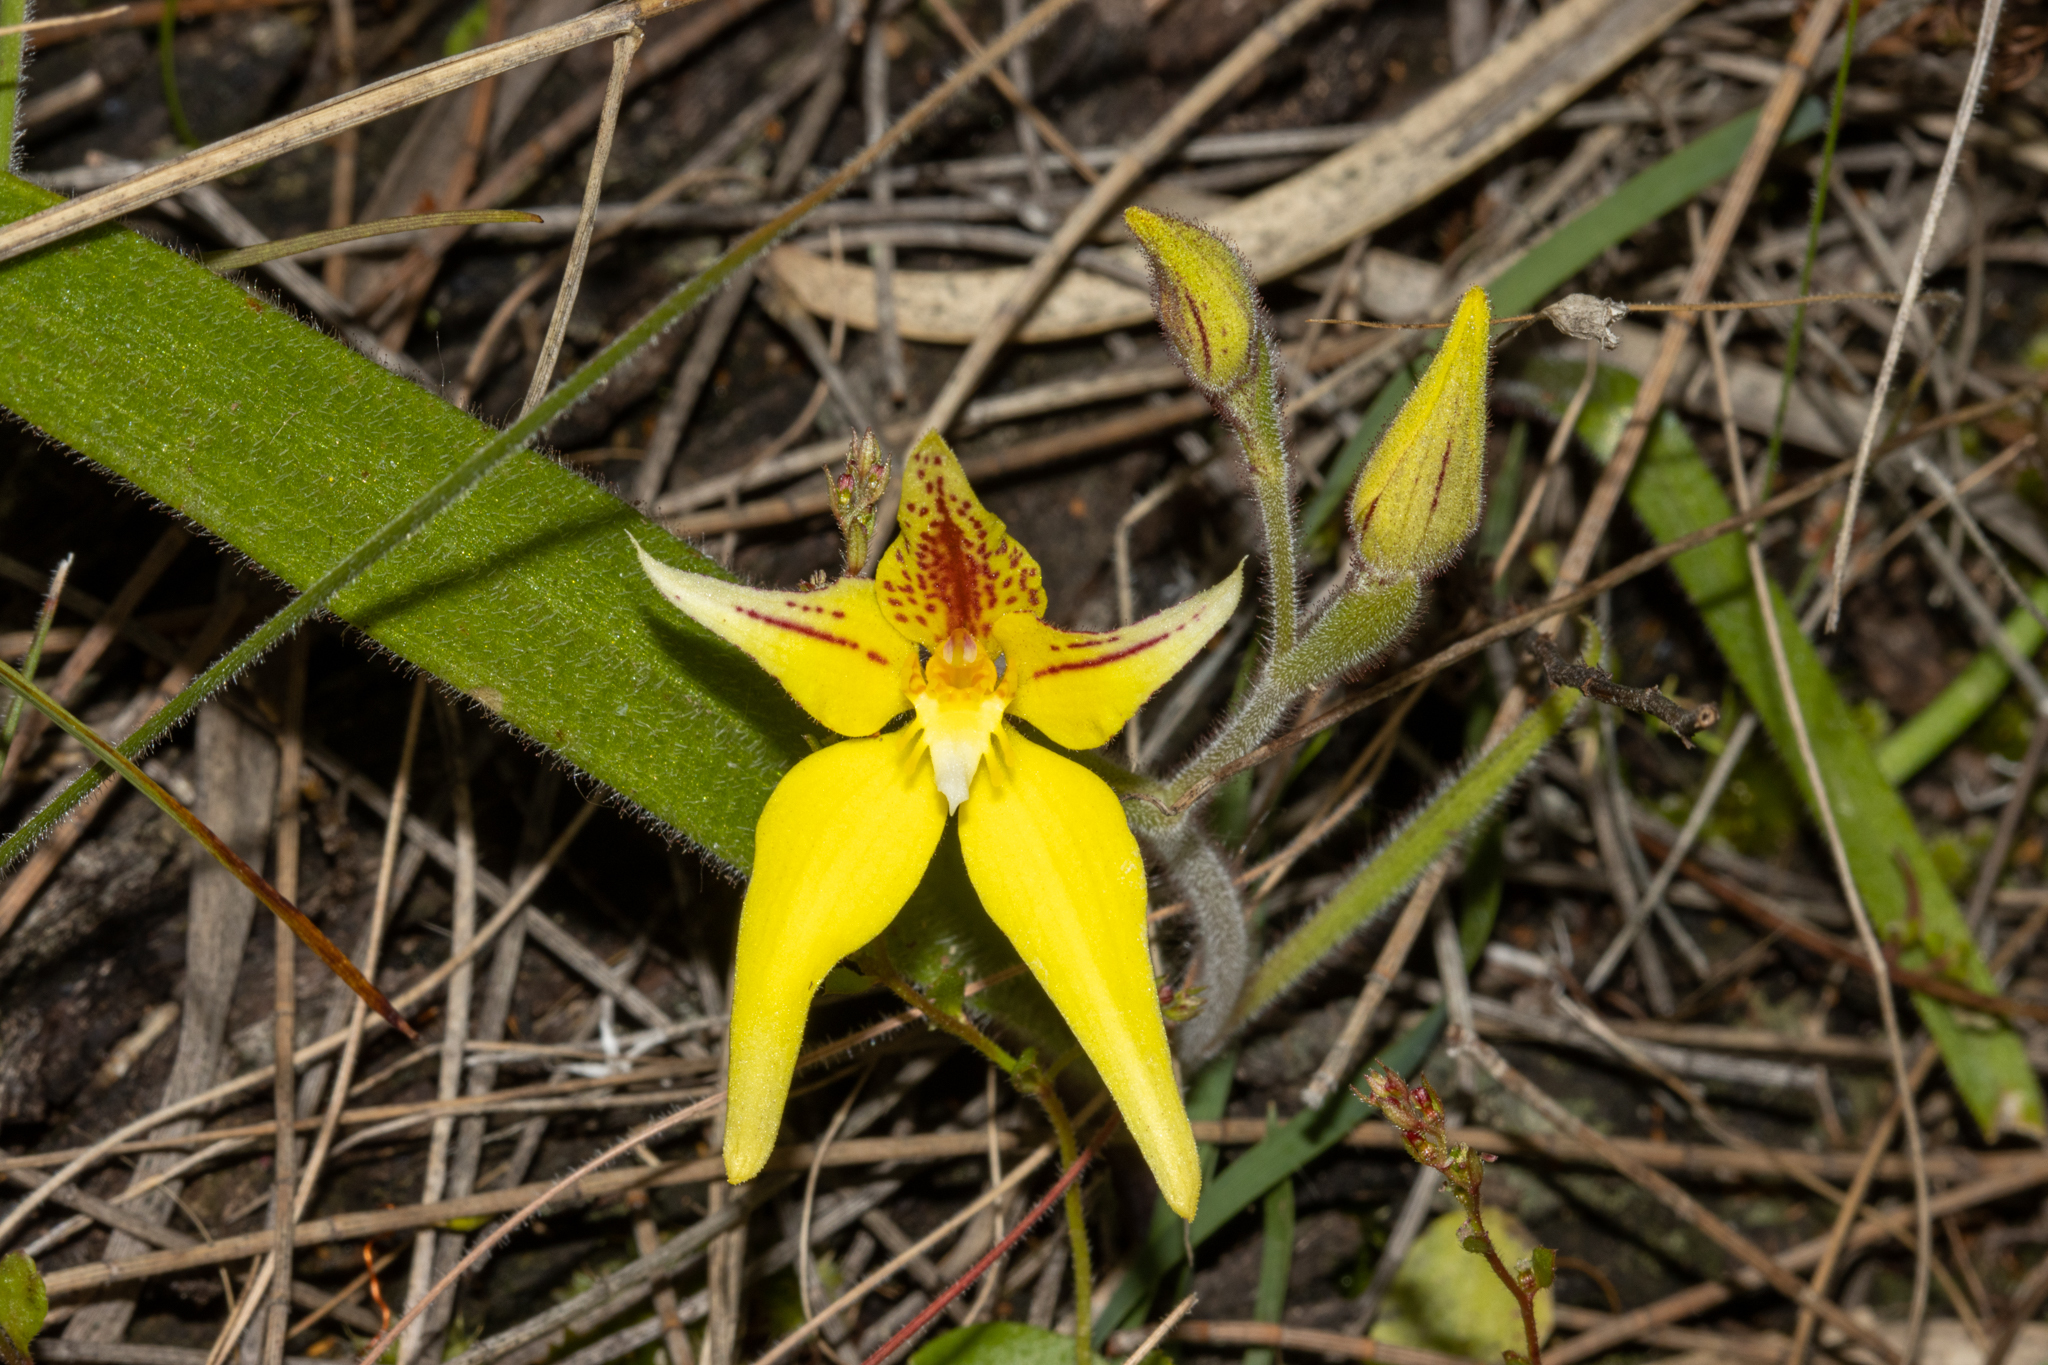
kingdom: Plantae
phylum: Tracheophyta
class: Liliopsida
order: Asparagales
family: Orchidaceae
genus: Caladenia
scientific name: Caladenia flava
